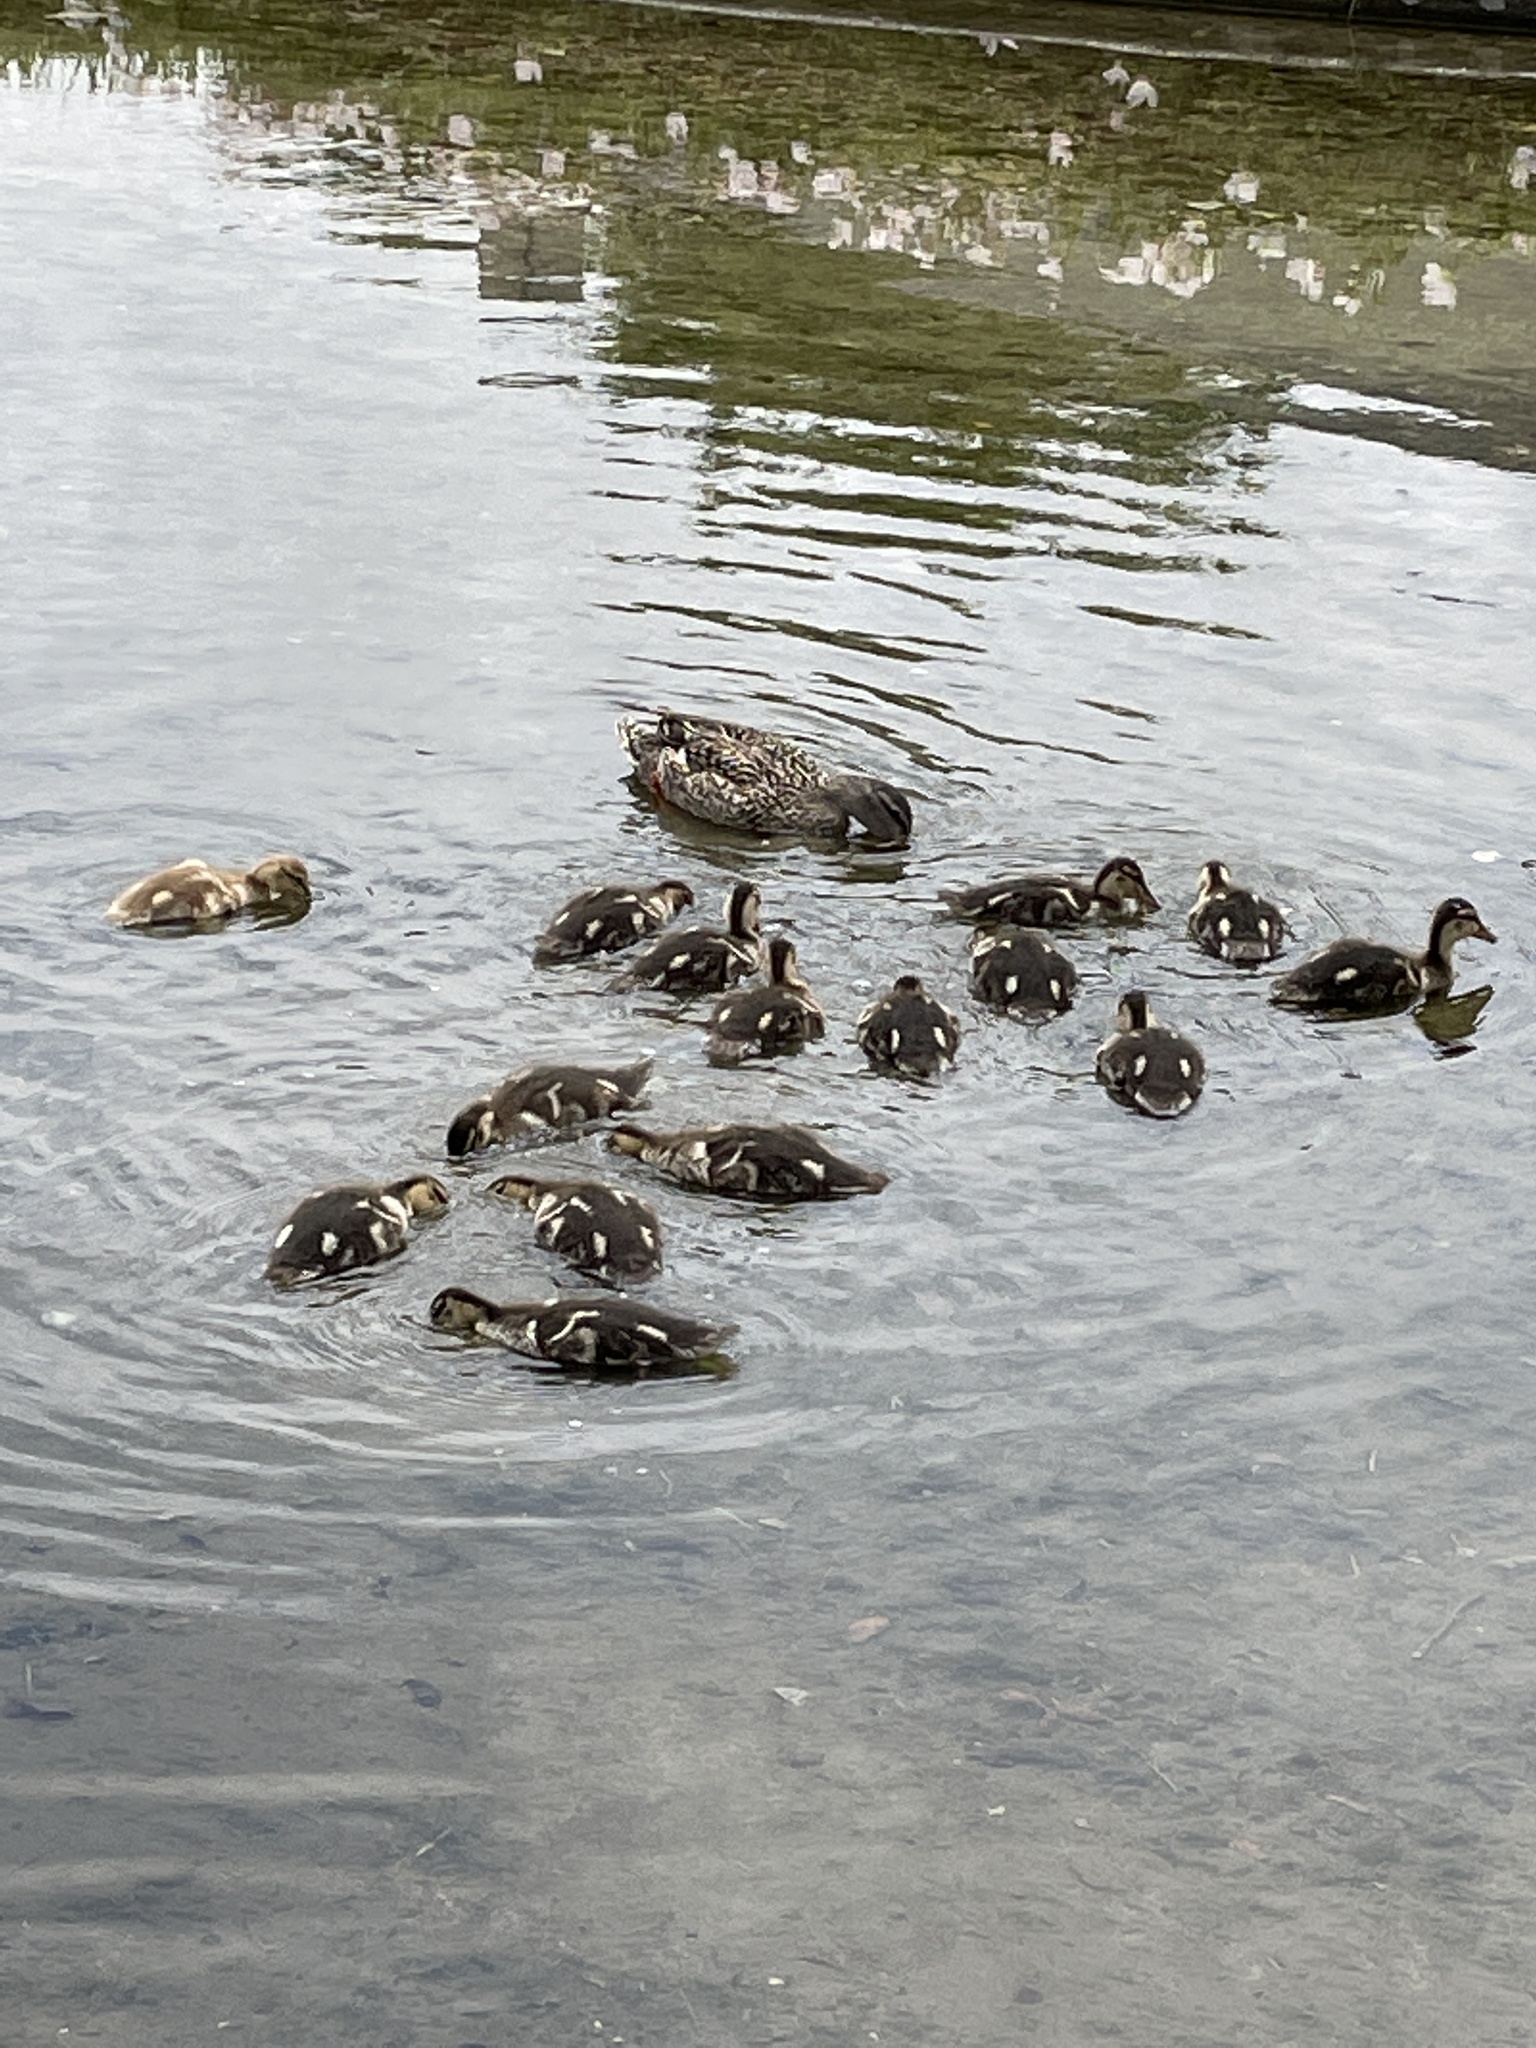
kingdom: Animalia
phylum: Chordata
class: Aves
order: Anseriformes
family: Anatidae
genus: Anas
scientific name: Anas platyrhynchos
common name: Mallard
